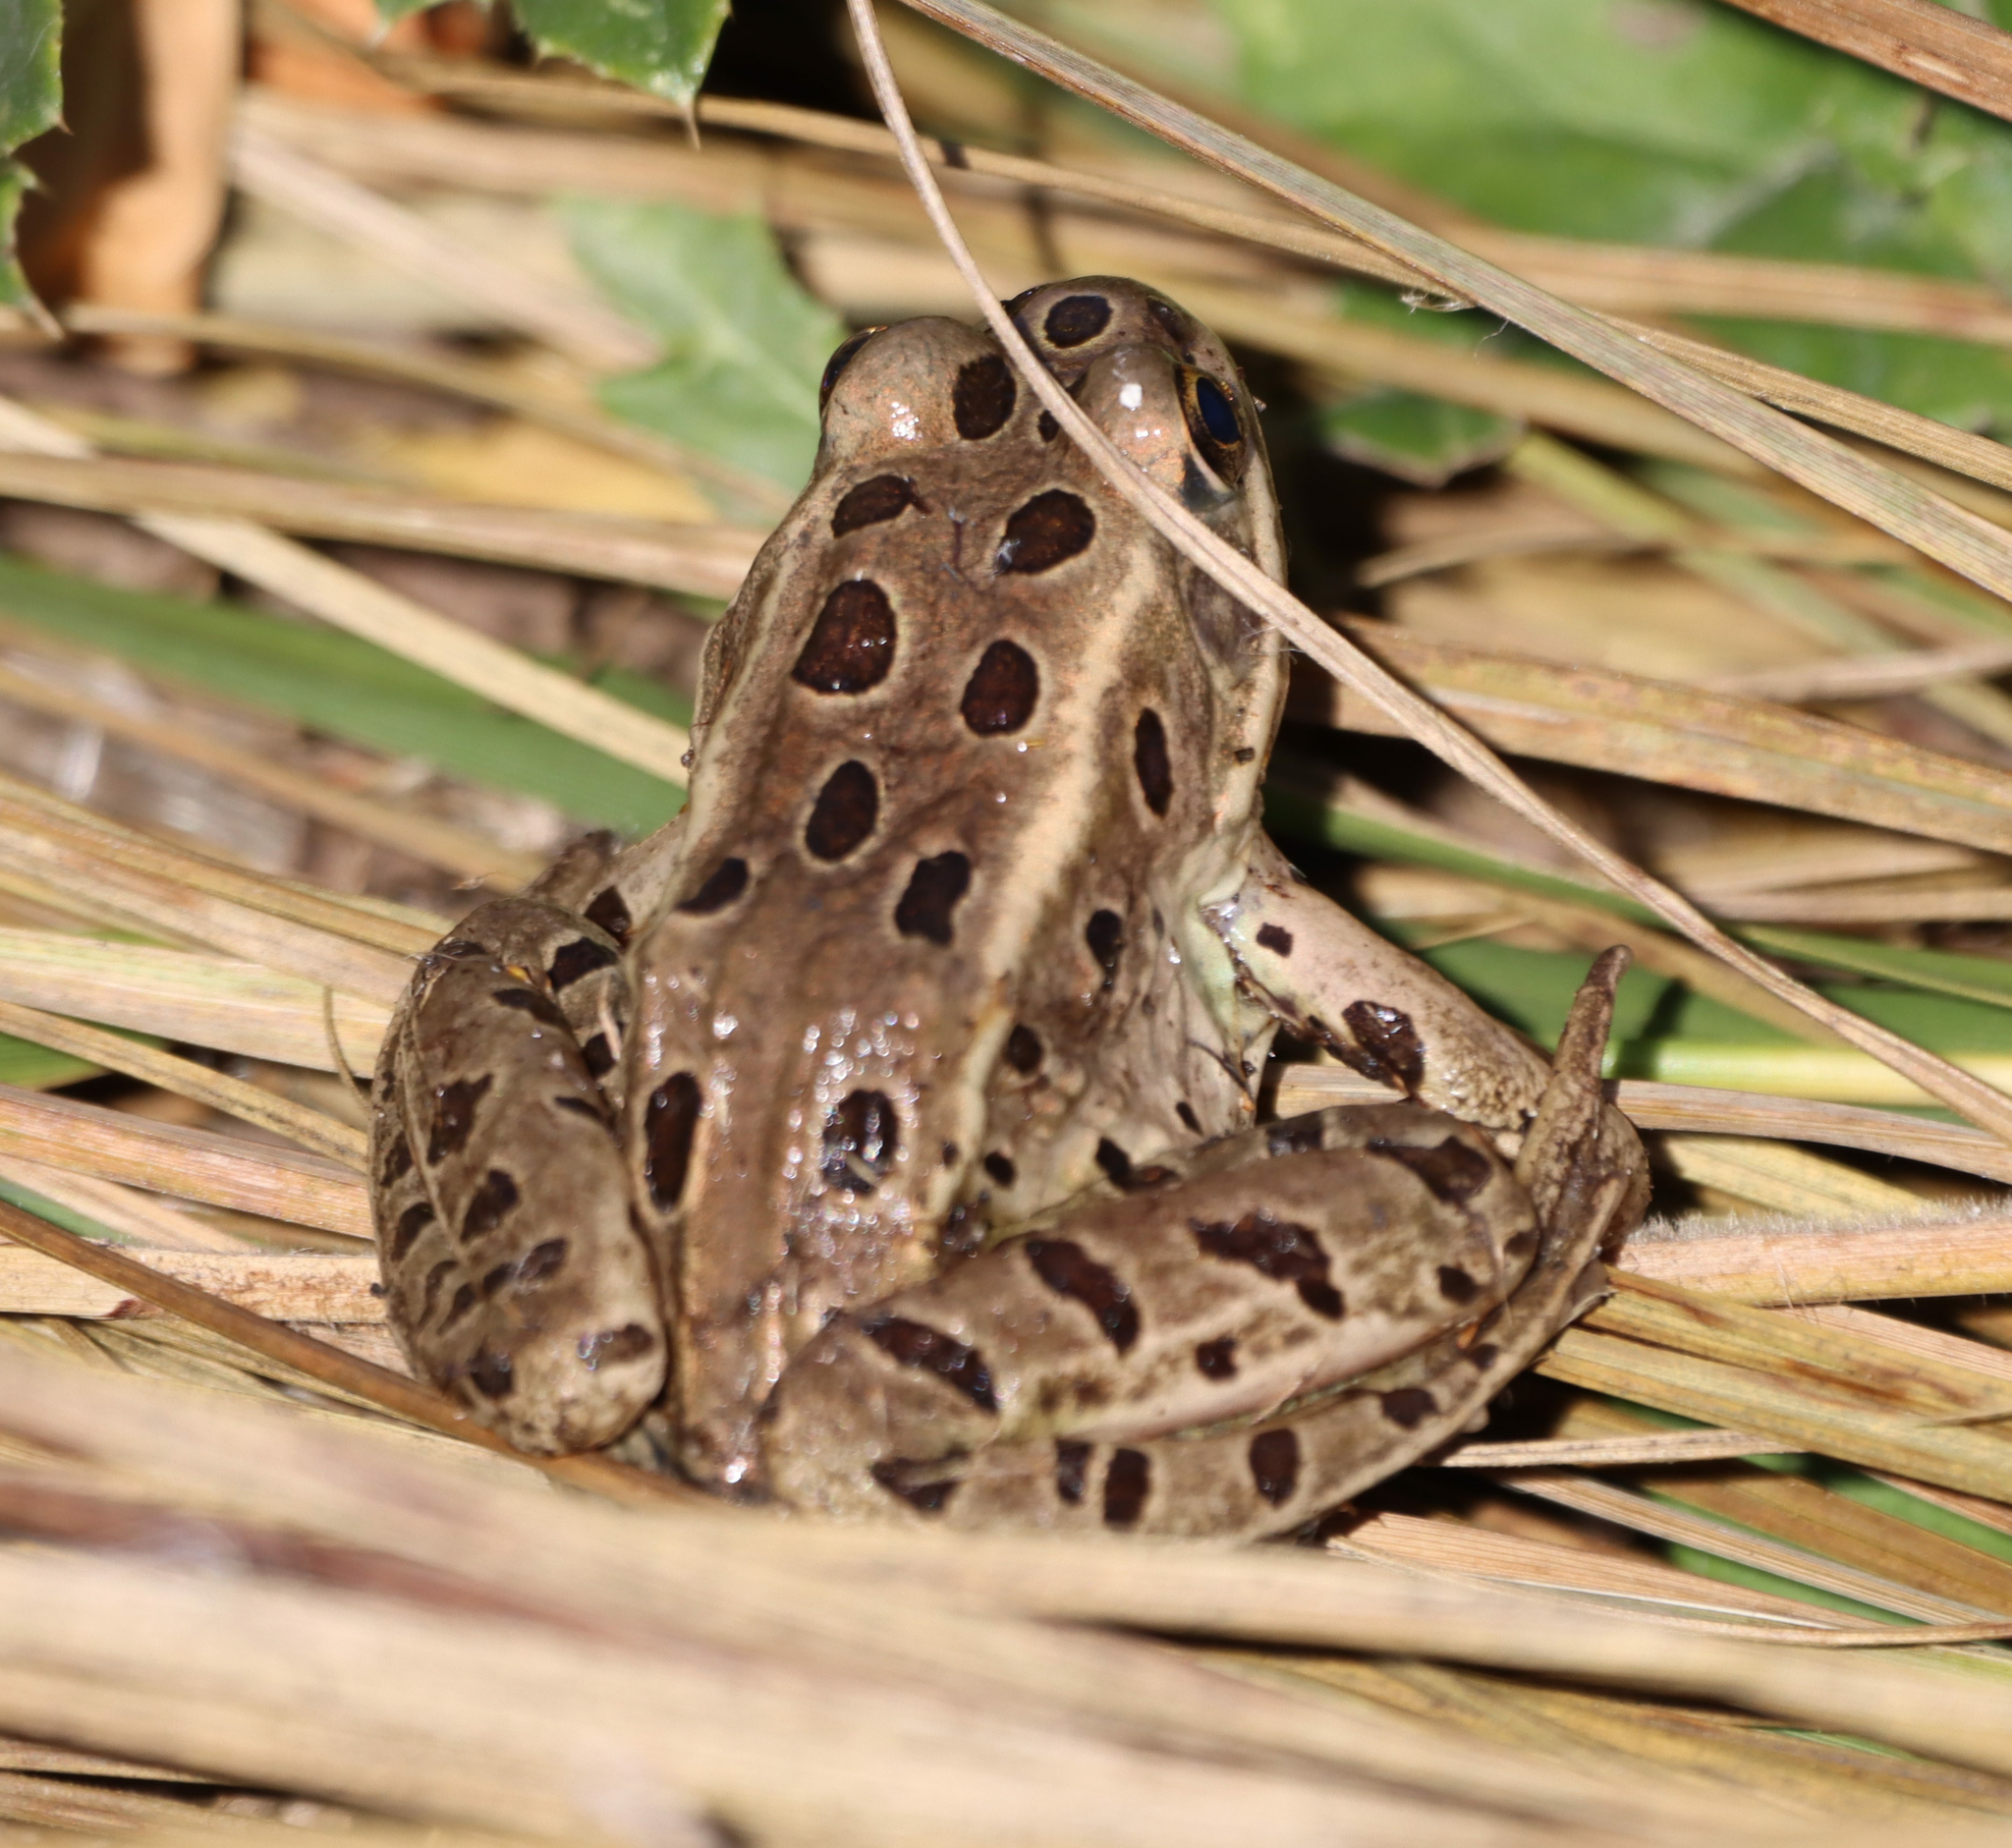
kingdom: Animalia
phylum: Chordata
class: Amphibia
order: Anura
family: Ranidae
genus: Lithobates
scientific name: Lithobates pipiens
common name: Northern leopard frog
